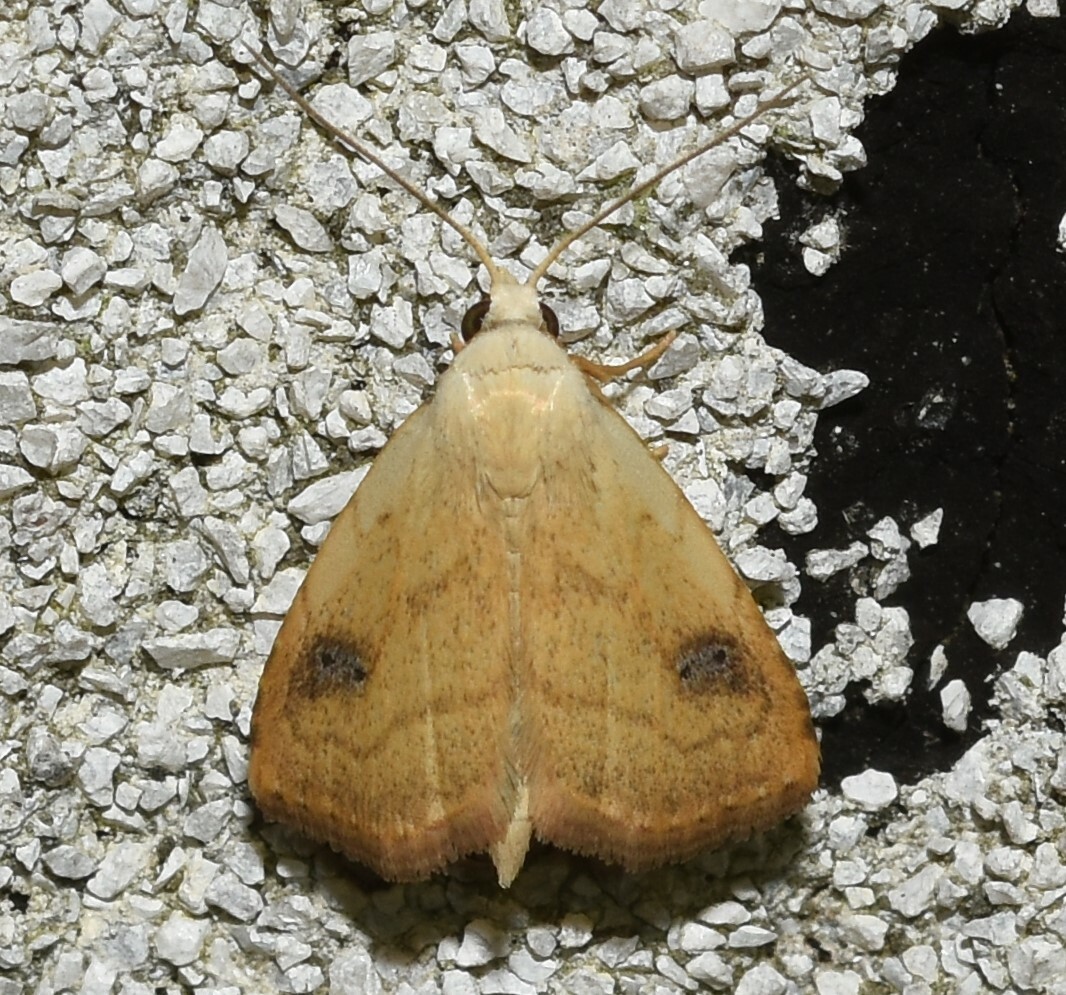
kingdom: Animalia
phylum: Arthropoda
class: Insecta
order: Lepidoptera
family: Erebidae
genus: Rivula
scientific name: Rivula propinqualis
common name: Spotted grass moth
